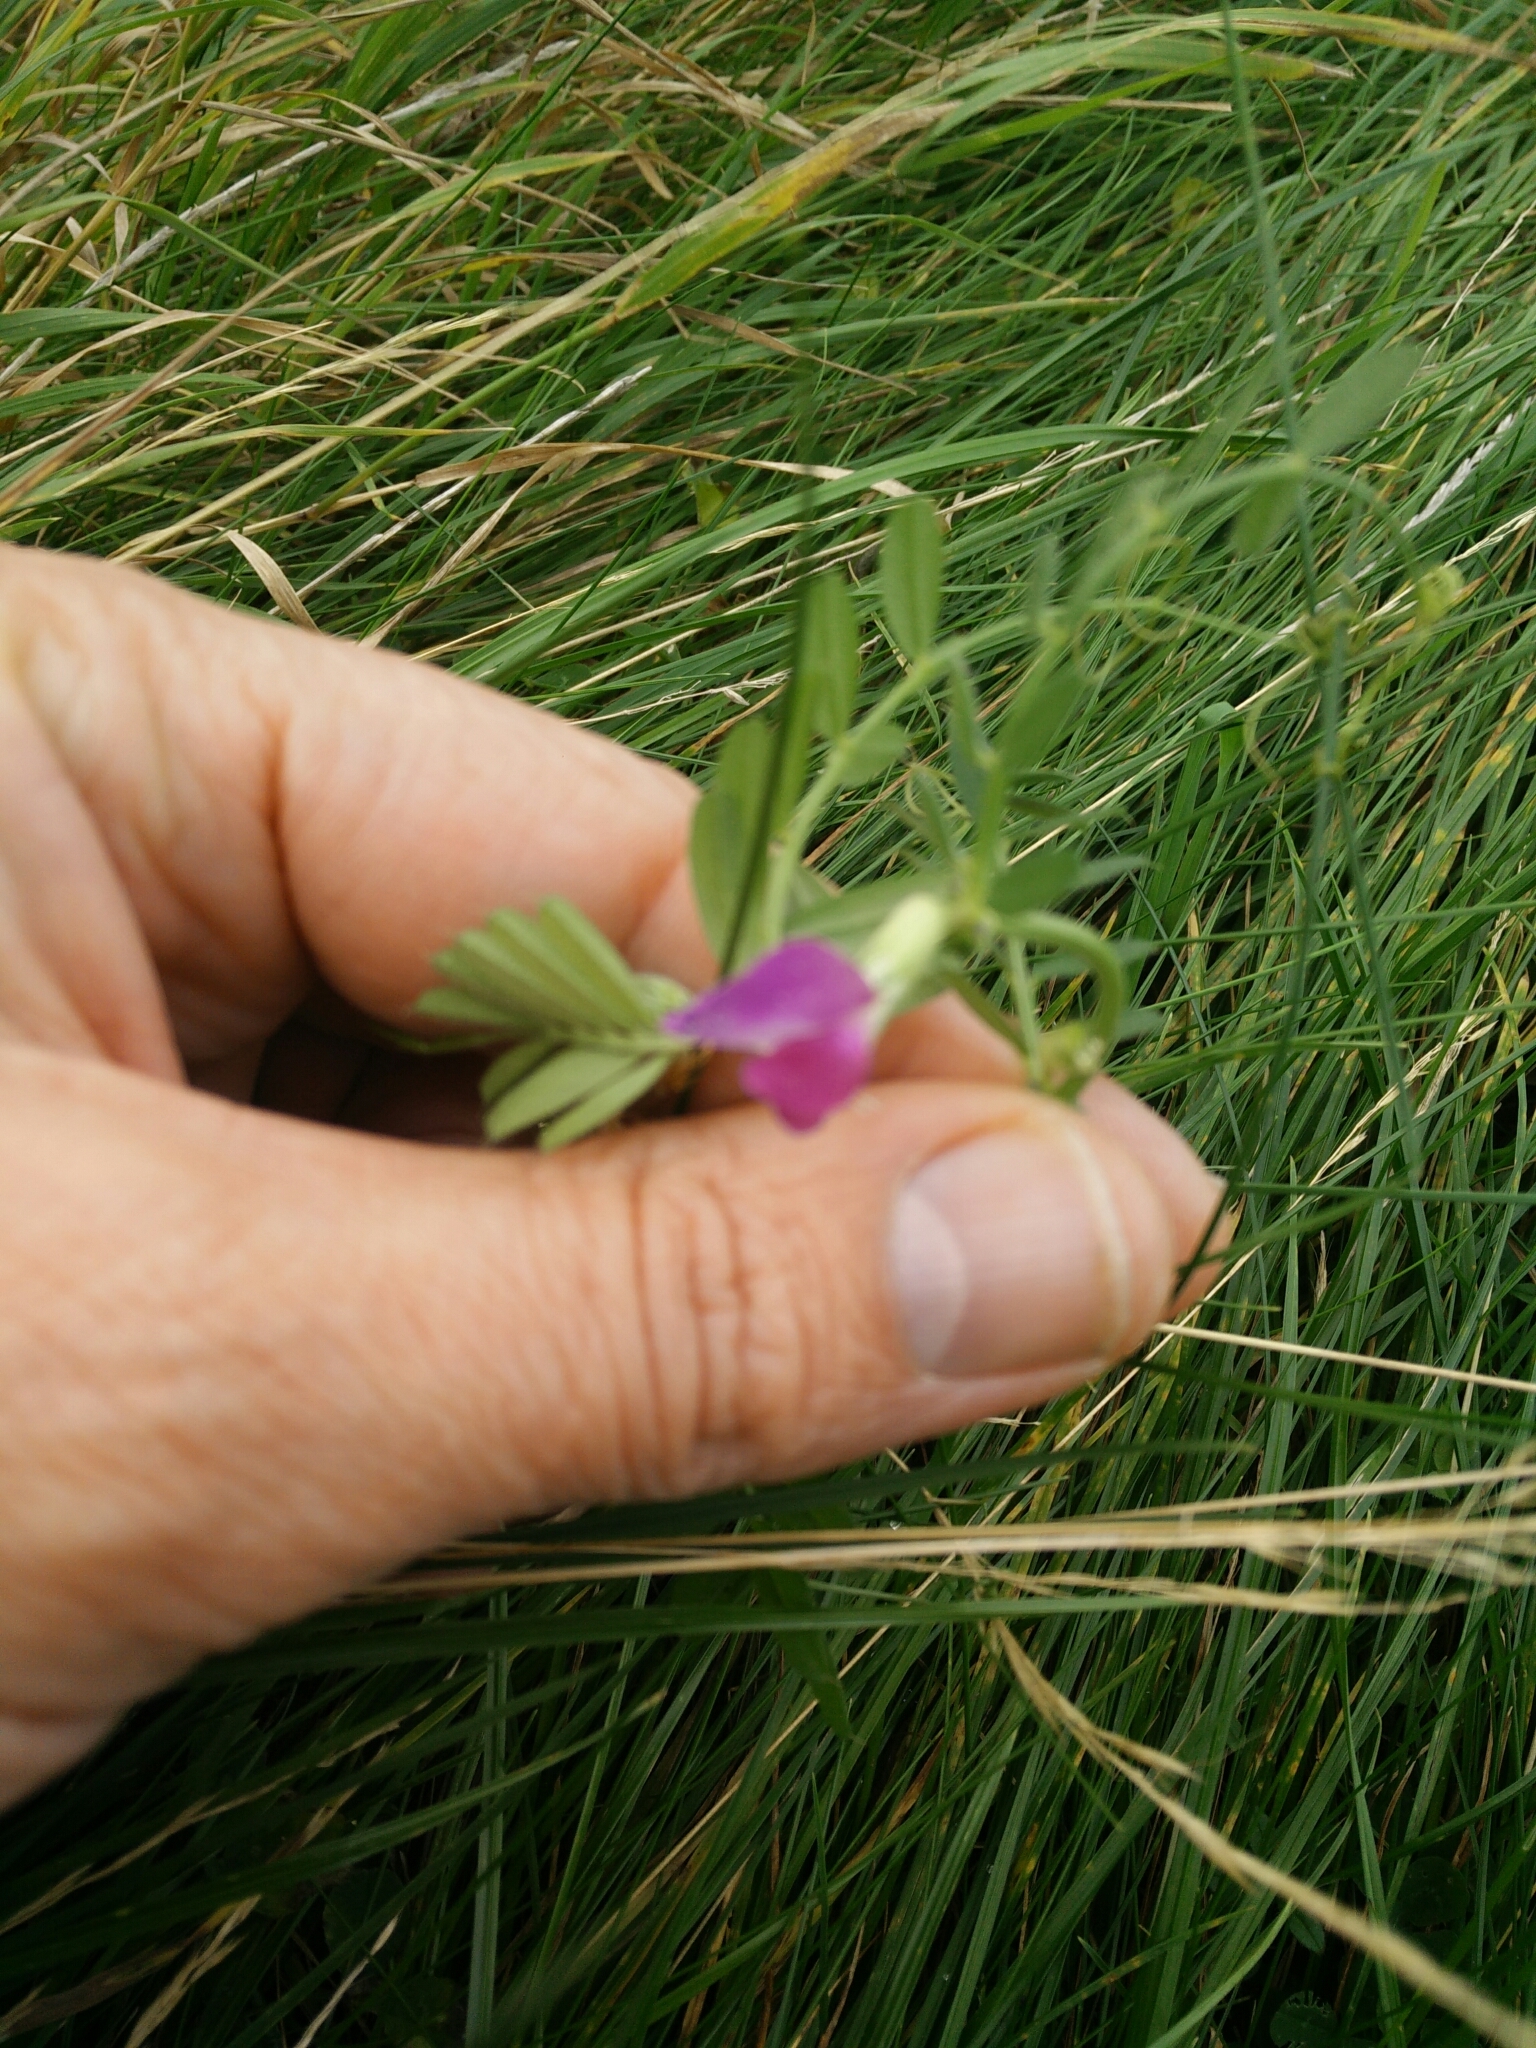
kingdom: Plantae
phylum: Tracheophyta
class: Magnoliopsida
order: Fabales
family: Fabaceae
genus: Vicia
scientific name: Vicia sativa
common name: Garden vetch
